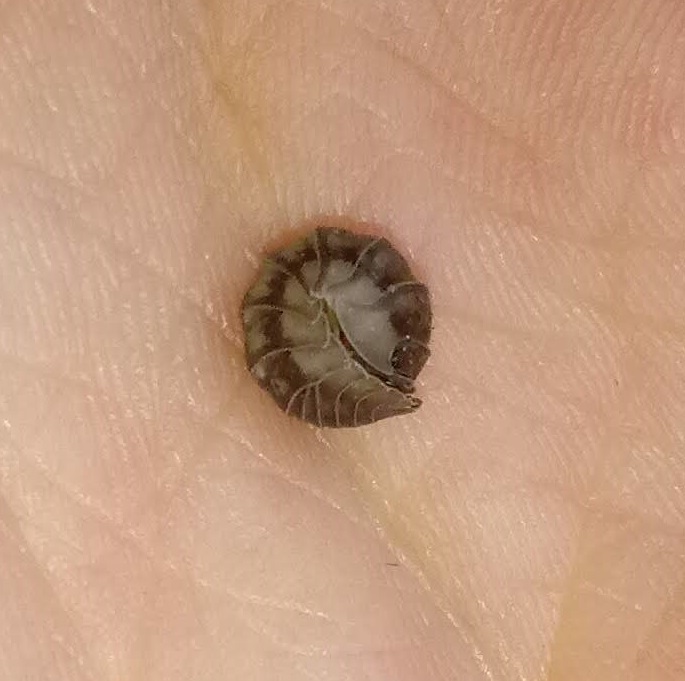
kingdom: Animalia
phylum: Arthropoda
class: Malacostraca
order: Isopoda
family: Armadillidiidae
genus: Armadillidium
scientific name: Armadillidium nasatum
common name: Isopod
